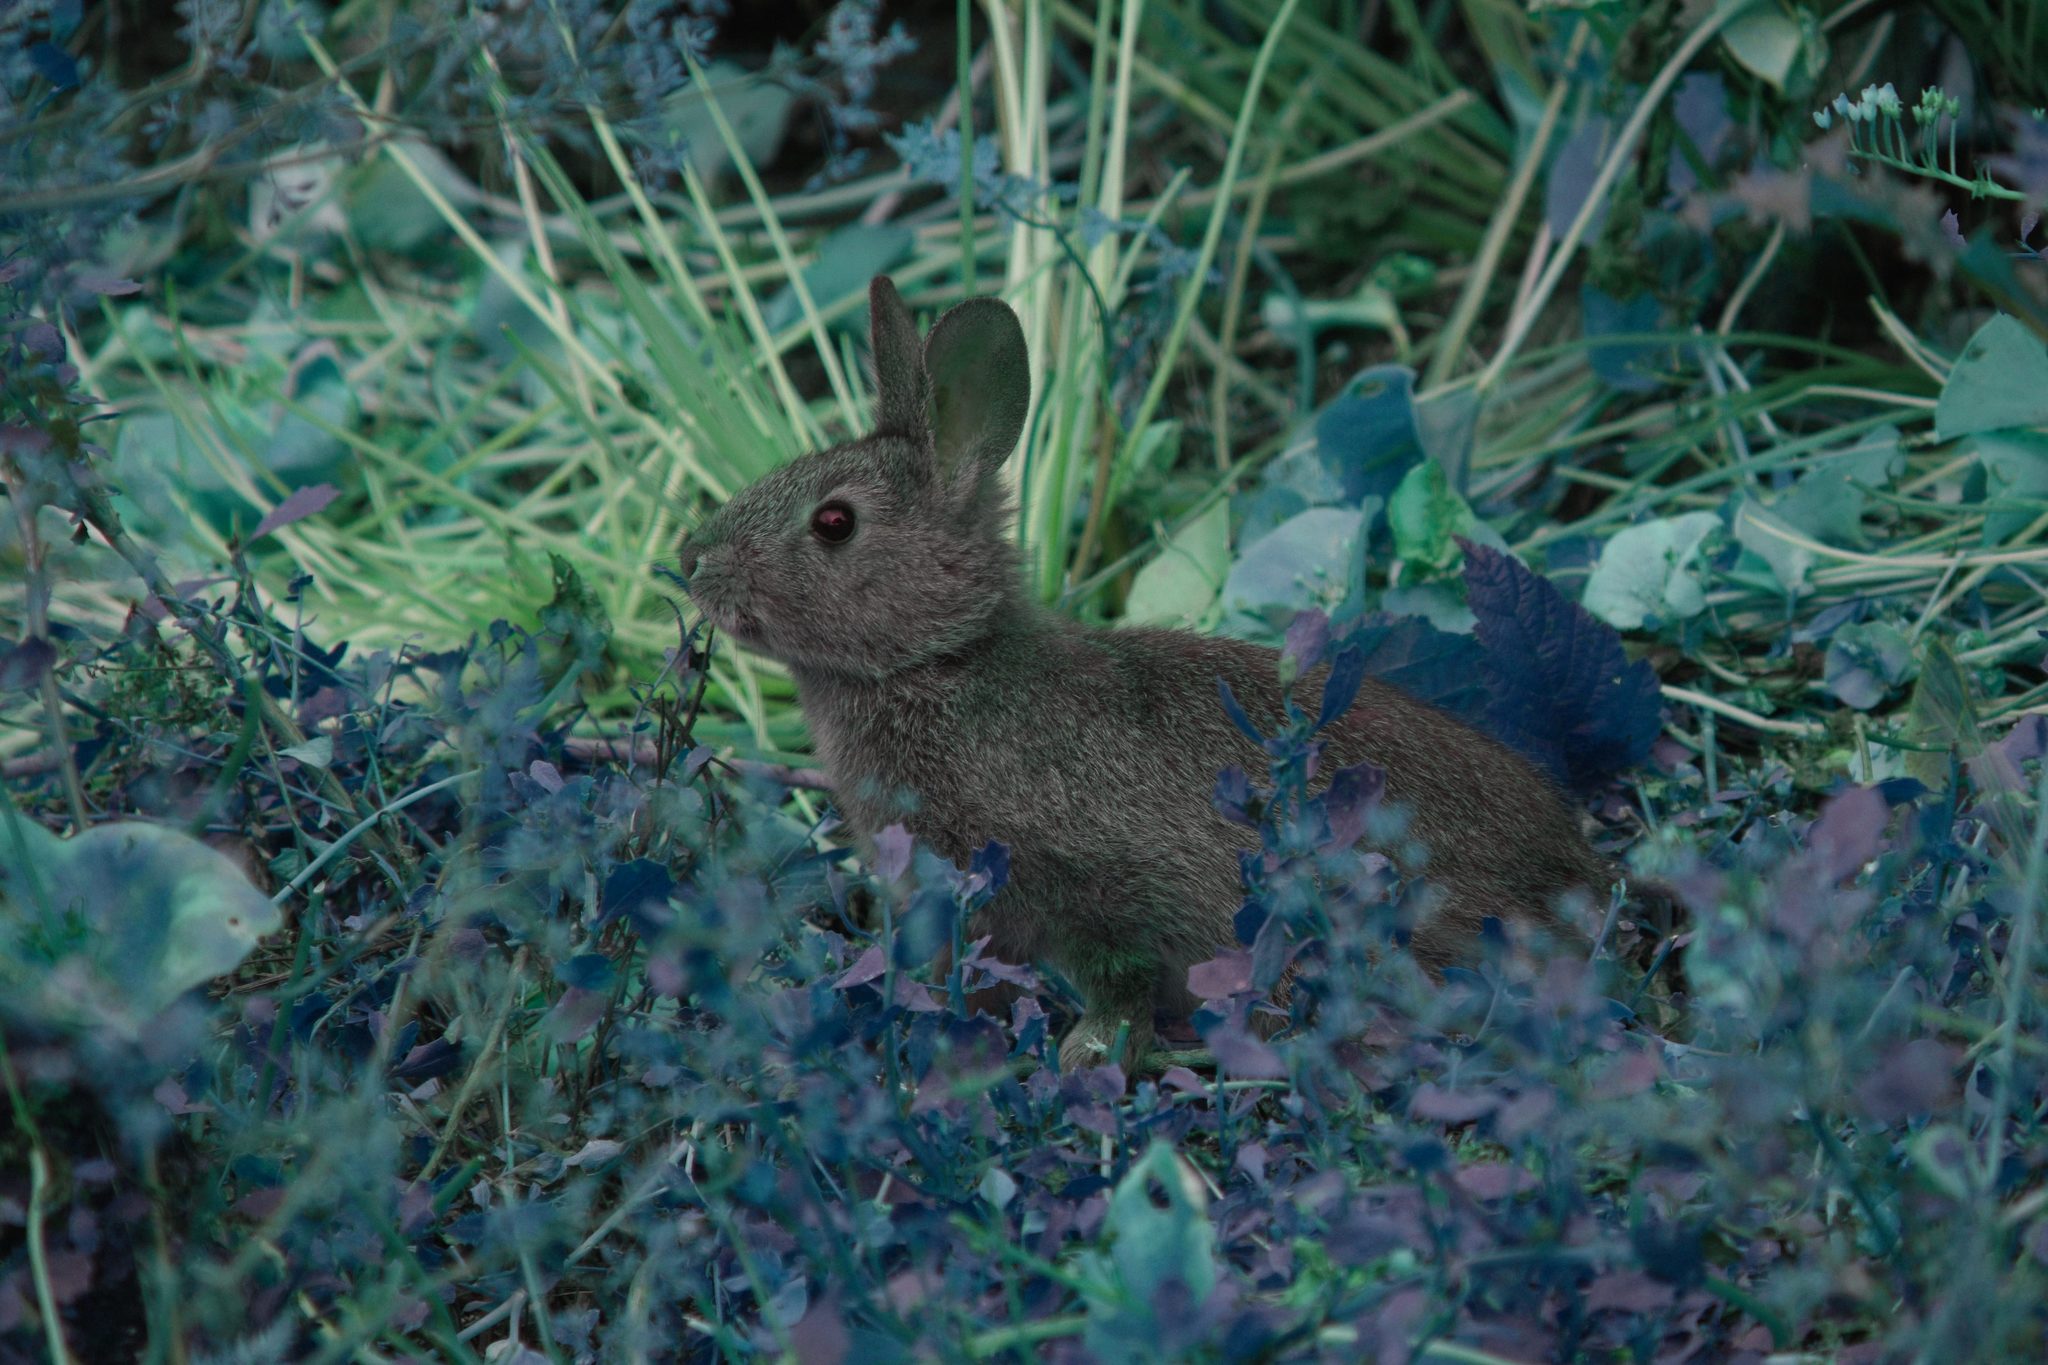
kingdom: Animalia
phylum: Chordata
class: Mammalia
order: Lagomorpha
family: Leporidae
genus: Sylvilagus
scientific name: Sylvilagus bachmani
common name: Brush rabbit
